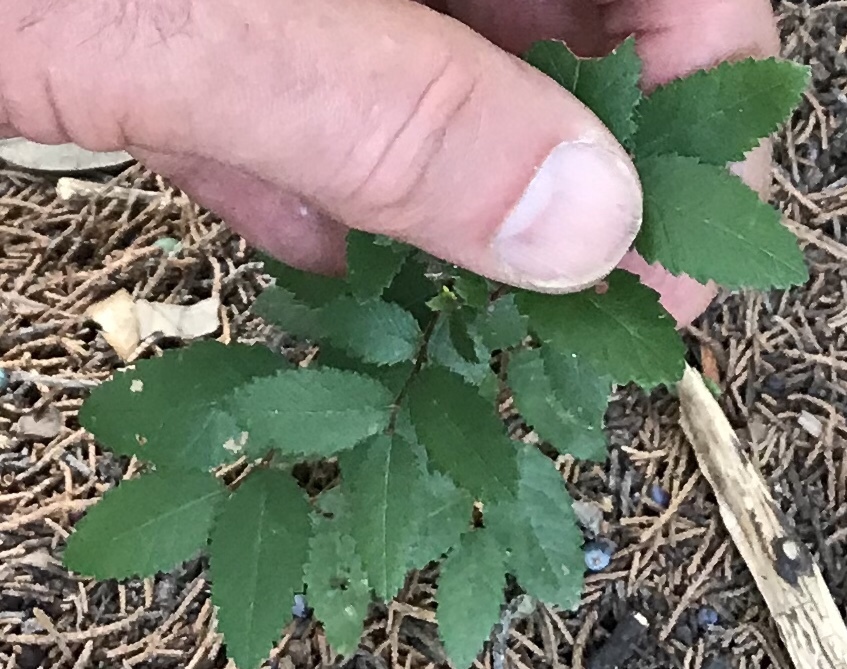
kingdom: Plantae
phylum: Tracheophyta
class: Magnoliopsida
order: Rosales
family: Ulmaceae
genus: Ulmus
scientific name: Ulmus crassifolia
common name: Basket elm
